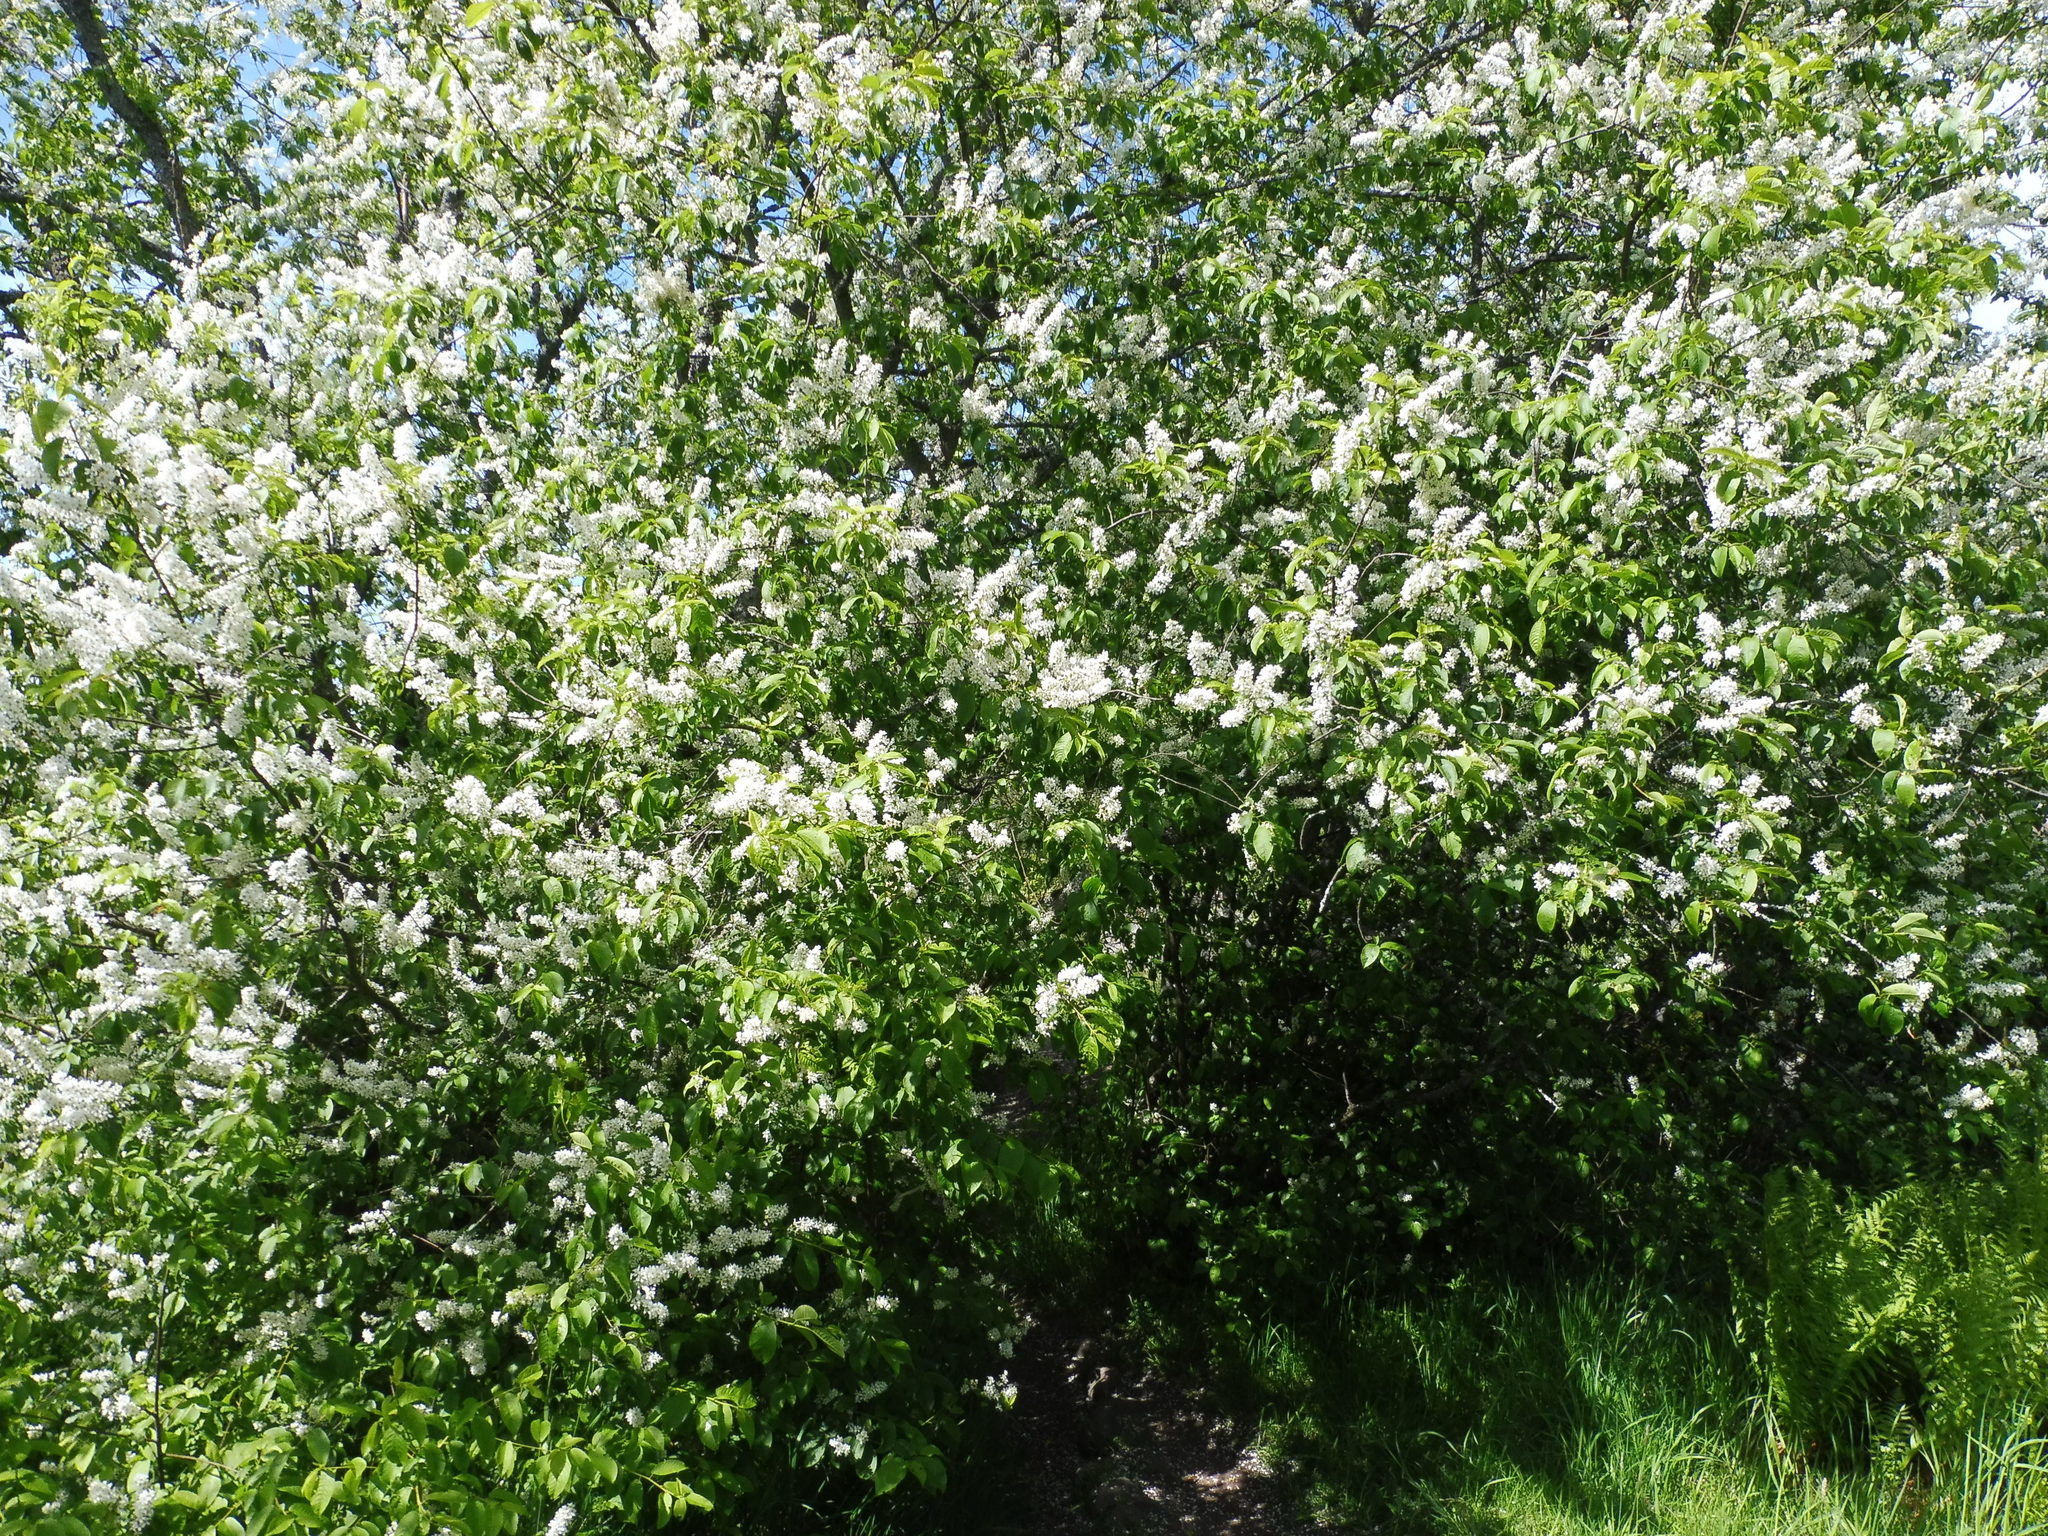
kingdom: Plantae
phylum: Tracheophyta
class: Magnoliopsida
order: Rosales
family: Rosaceae
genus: Prunus
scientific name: Prunus padus
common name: Bird cherry
